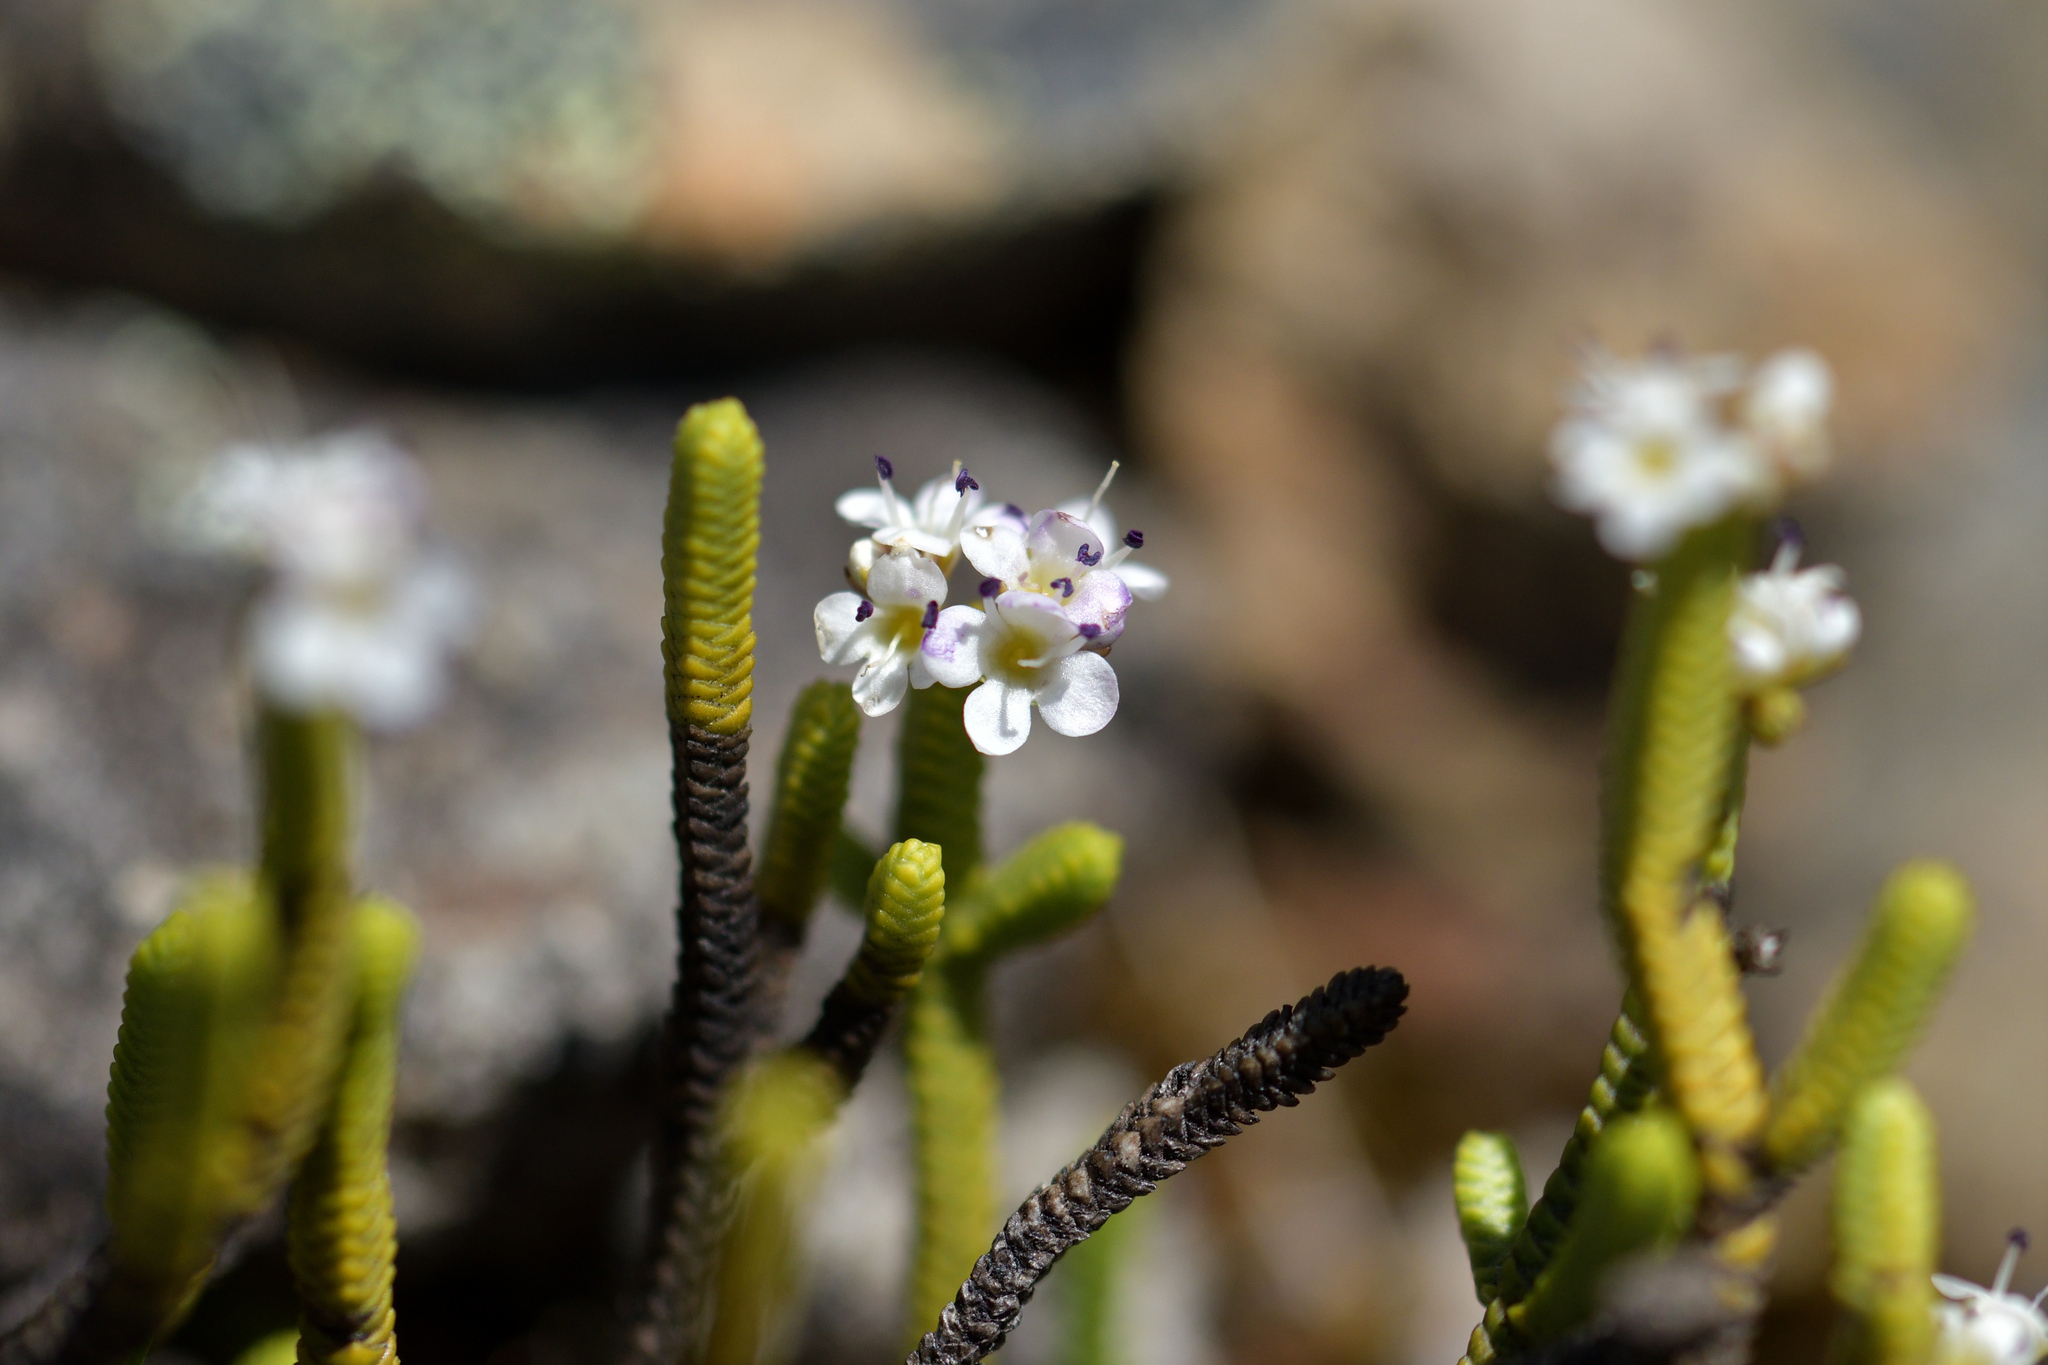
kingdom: Plantae
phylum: Tracheophyta
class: Magnoliopsida
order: Lamiales
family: Plantaginaceae
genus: Veronica
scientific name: Veronica quadrifaria
